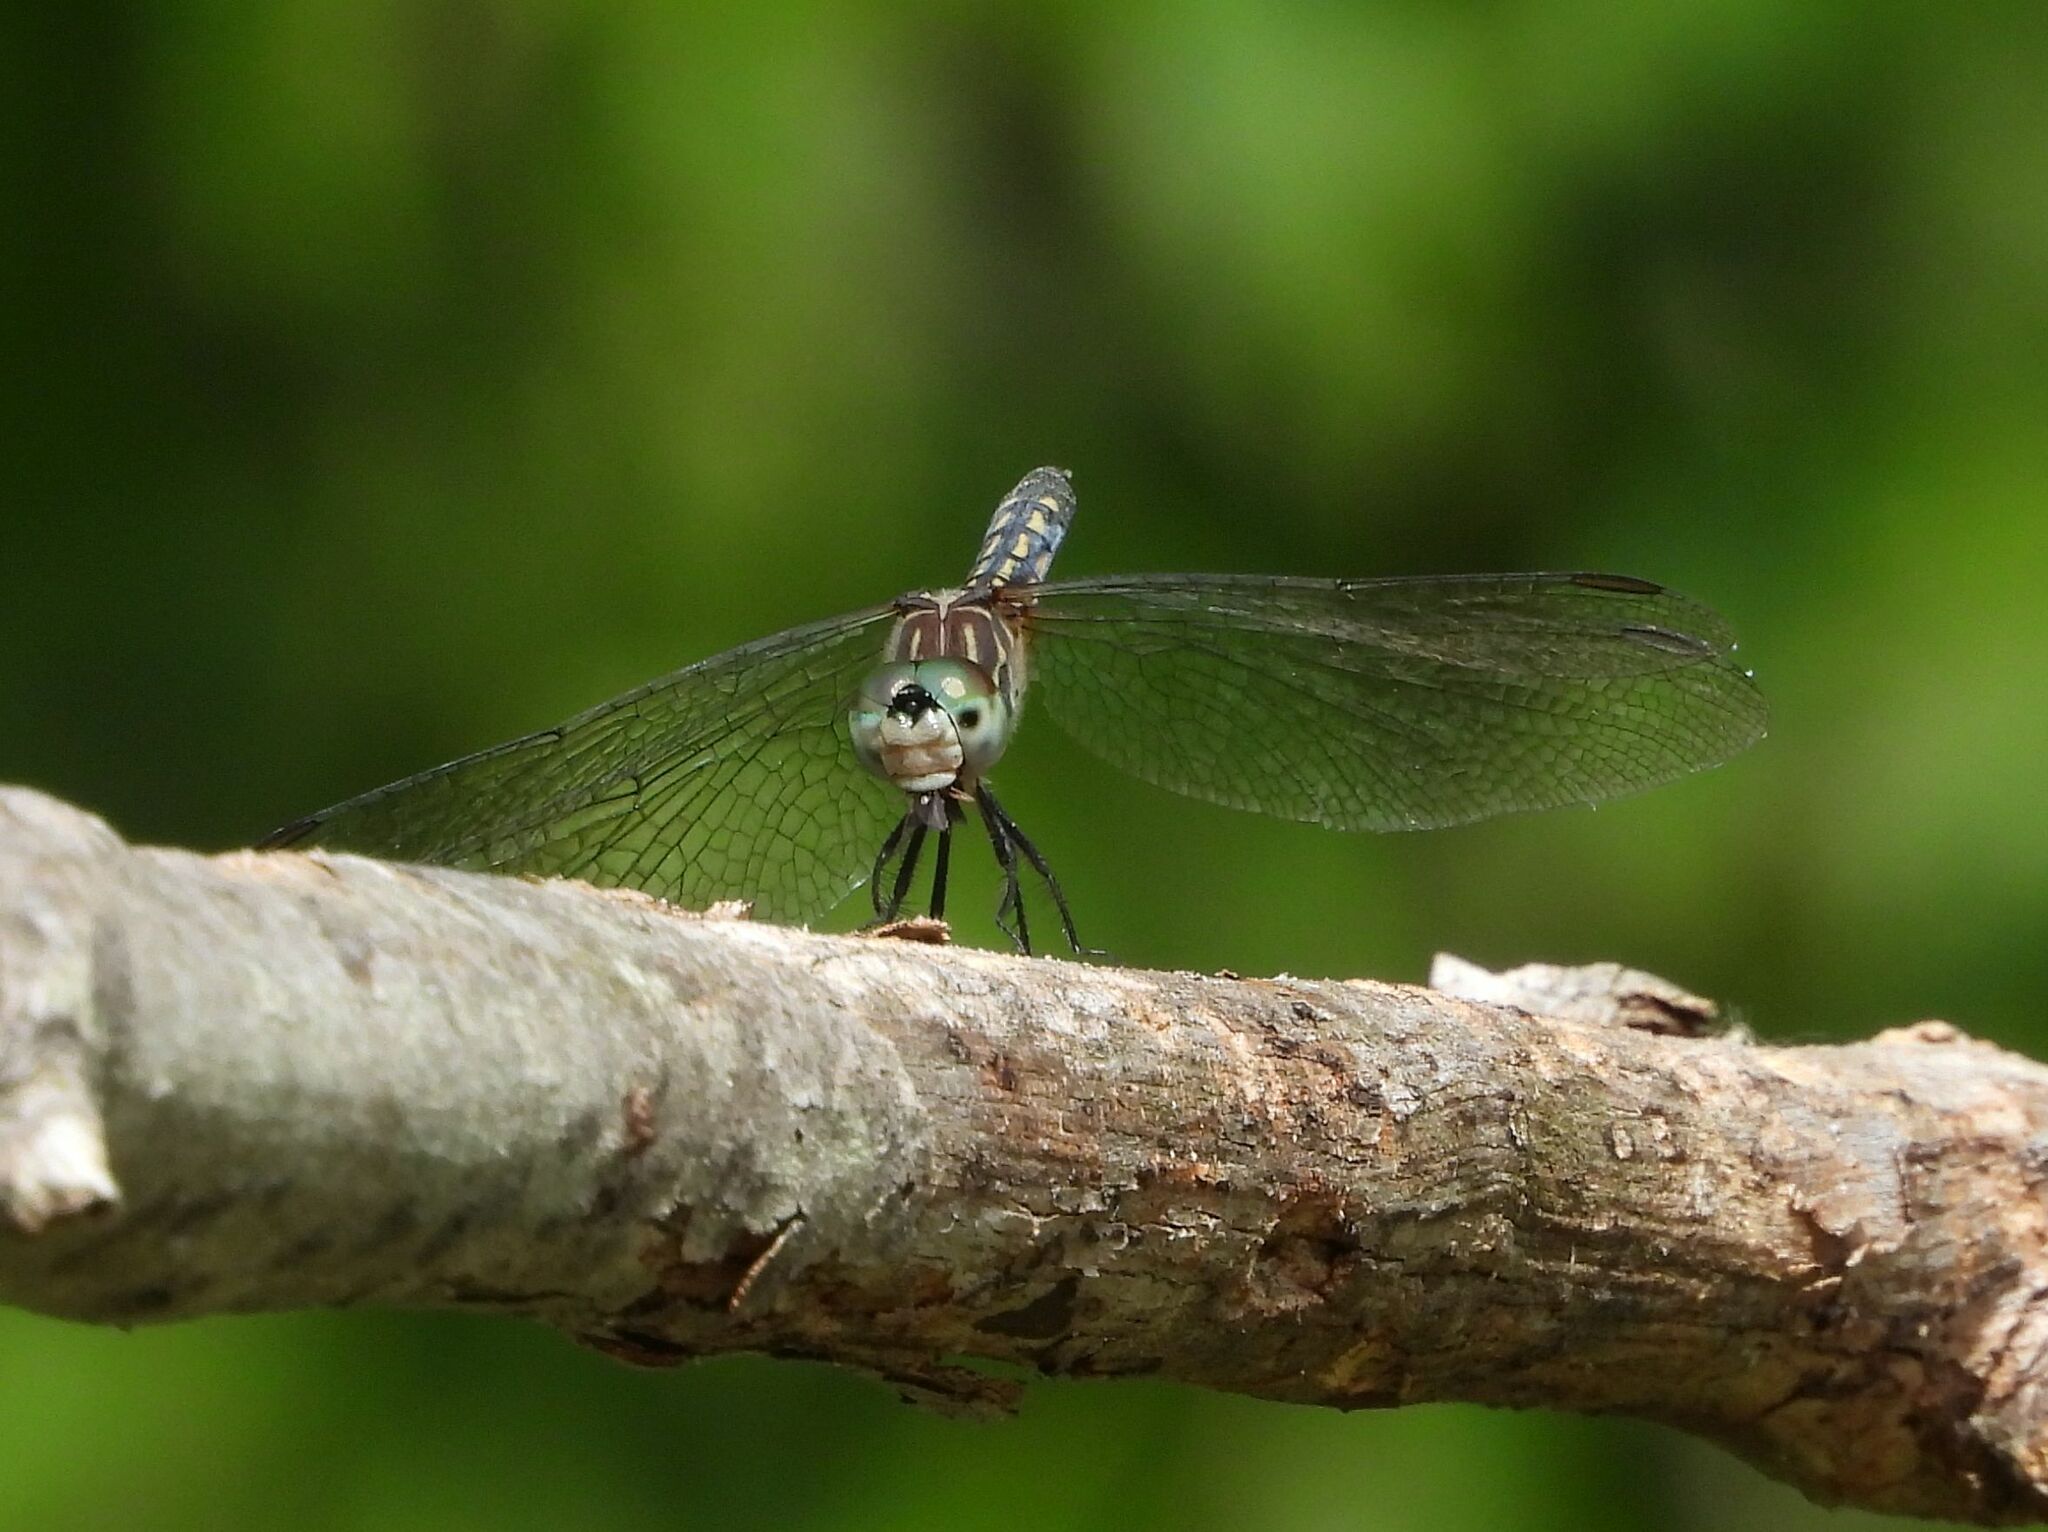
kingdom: Animalia
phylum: Arthropoda
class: Insecta
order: Odonata
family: Libellulidae
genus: Pachydiplax
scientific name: Pachydiplax longipennis
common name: Blue dasher
